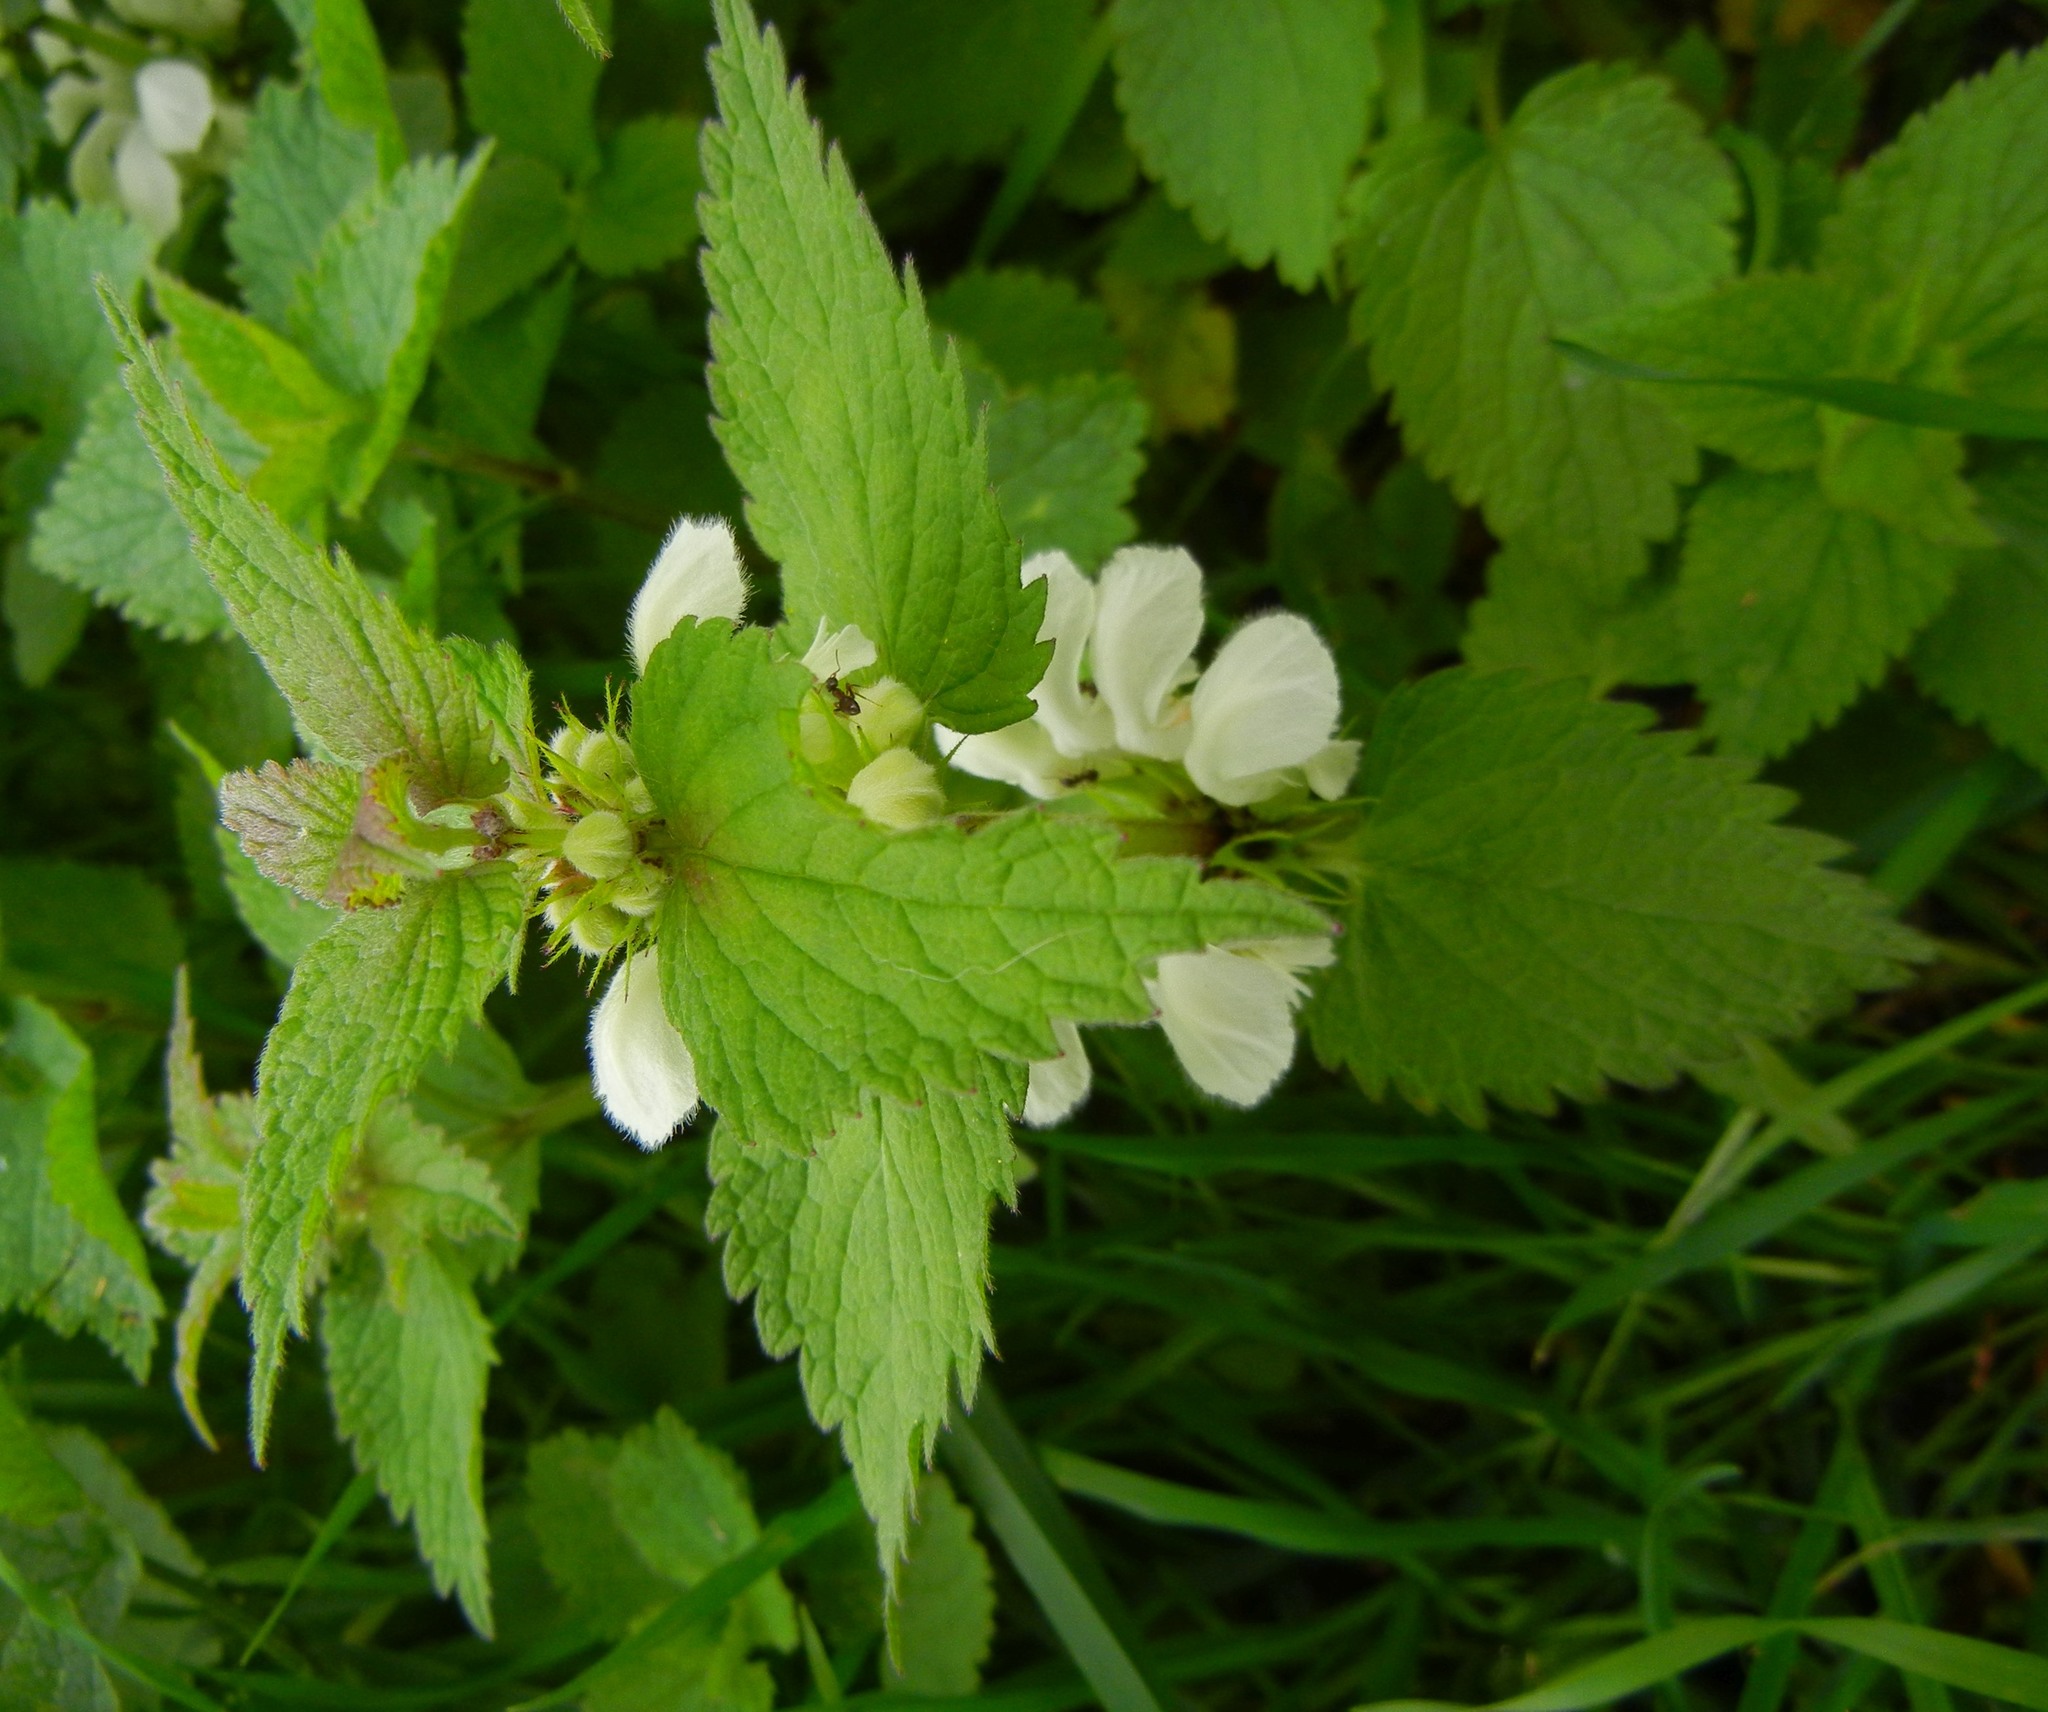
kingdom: Plantae
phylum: Tracheophyta
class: Magnoliopsida
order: Lamiales
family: Lamiaceae
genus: Lamium
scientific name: Lamium album
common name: White dead-nettle
